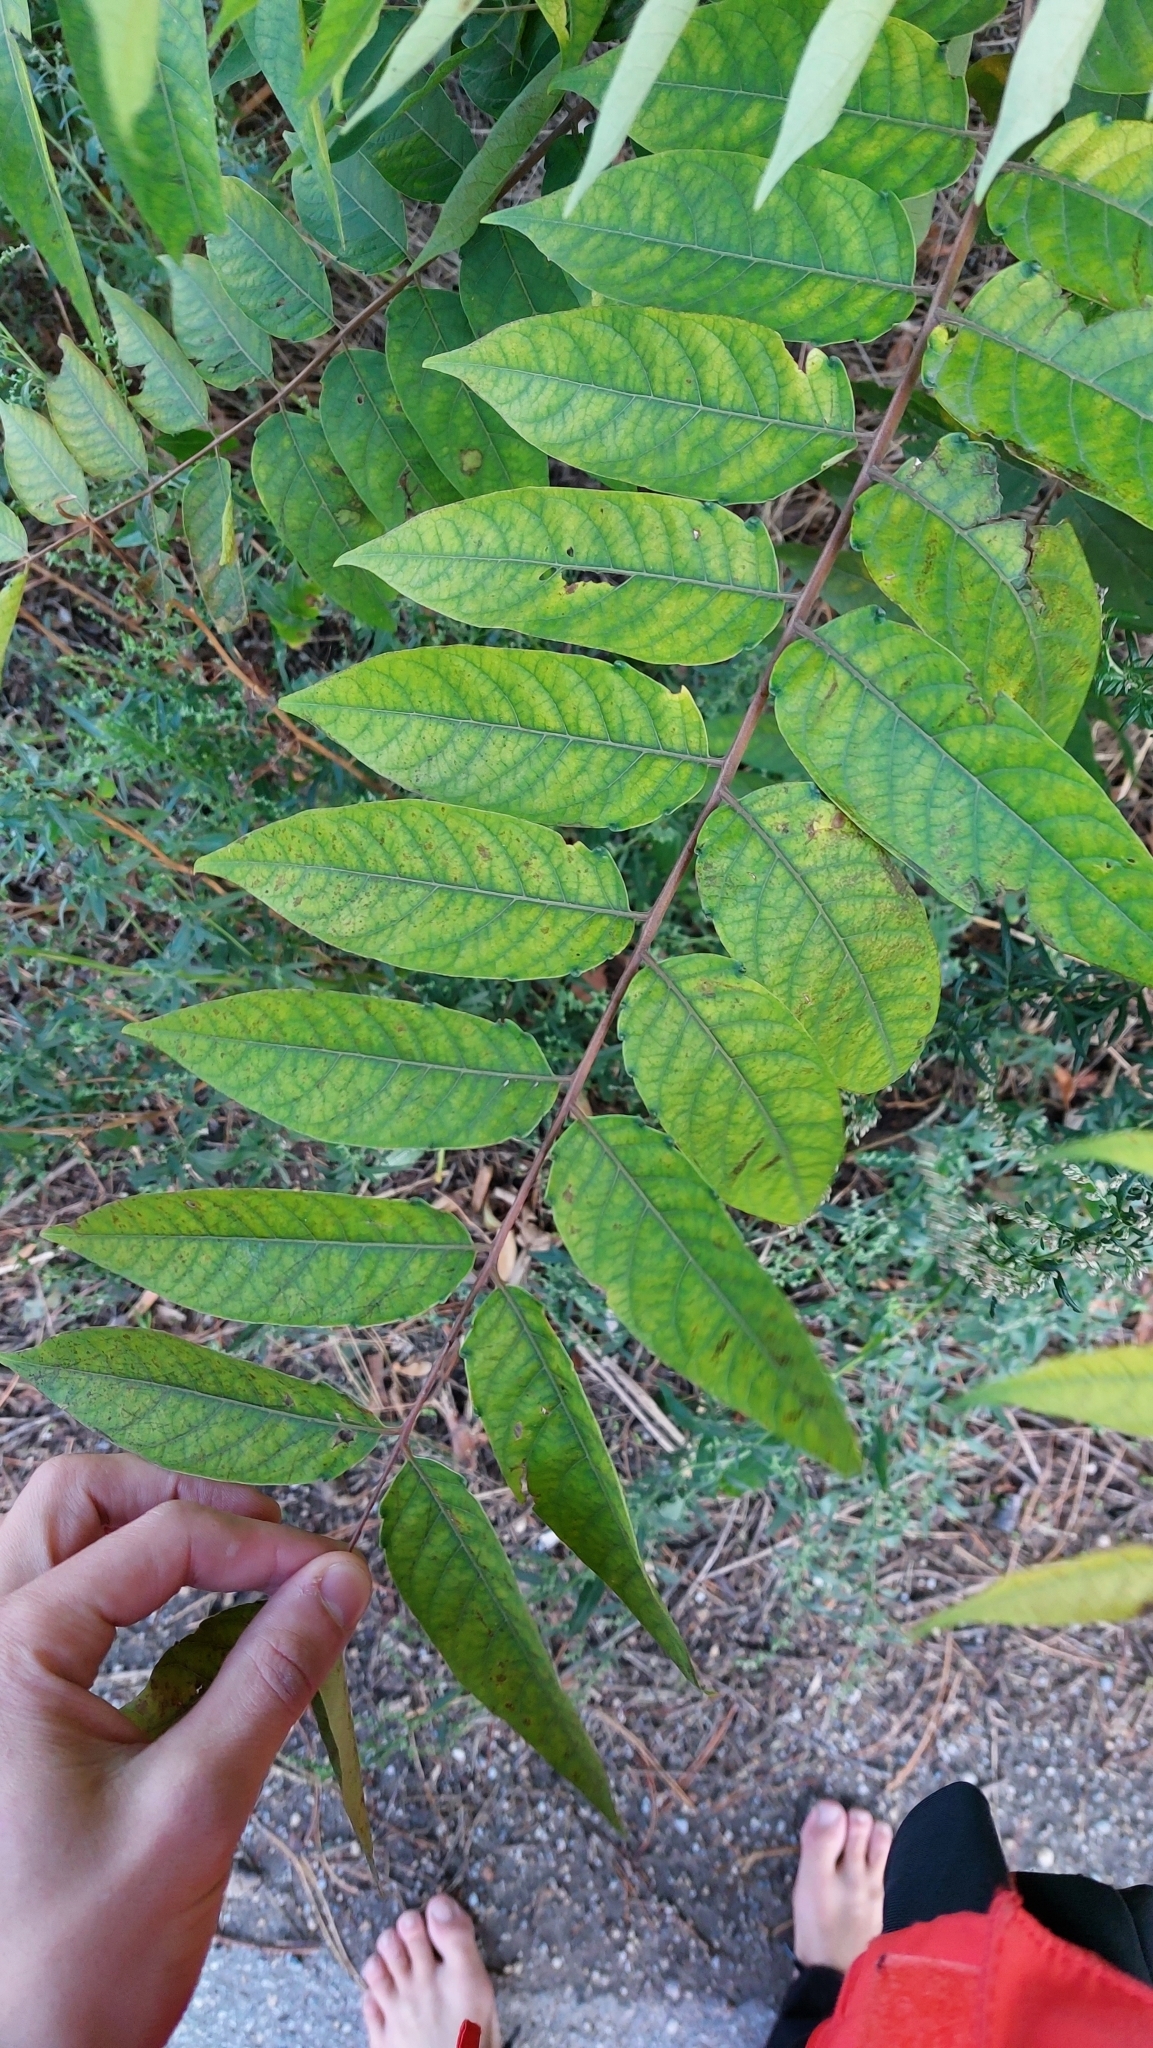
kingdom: Plantae
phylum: Tracheophyta
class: Magnoliopsida
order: Sapindales
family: Simaroubaceae
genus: Ailanthus
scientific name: Ailanthus altissima
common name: Tree-of-heaven
